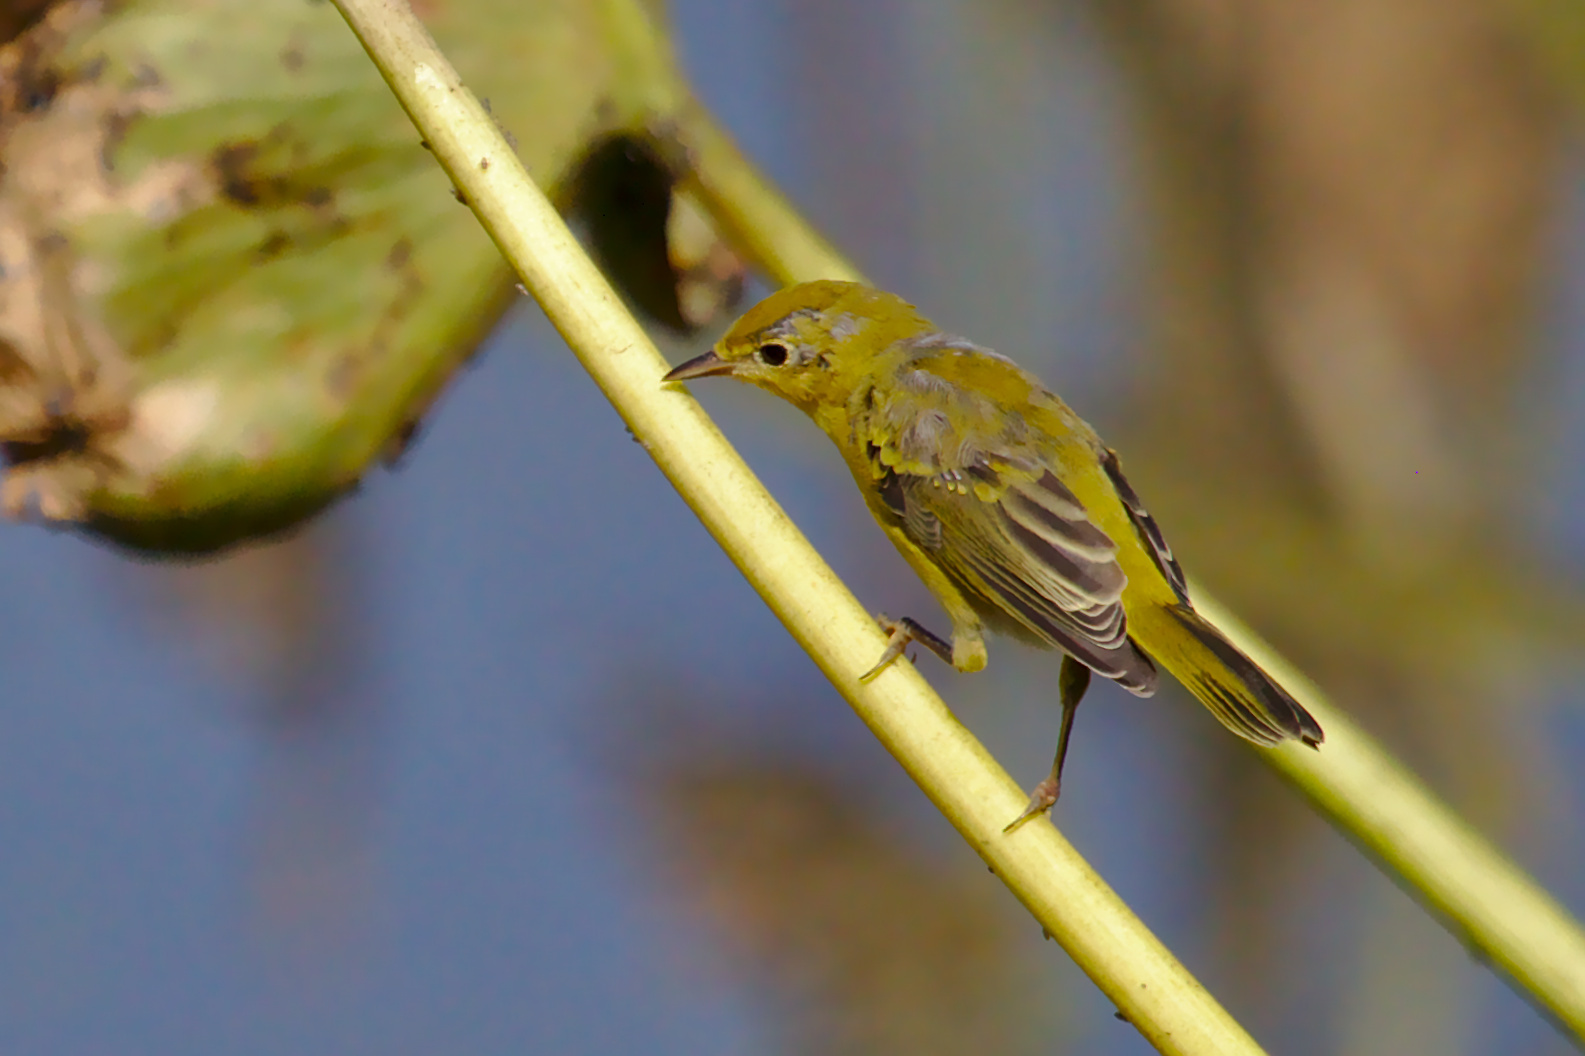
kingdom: Animalia
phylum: Chordata
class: Aves
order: Passeriformes
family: Parulidae
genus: Setophaga
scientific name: Setophaga petechia
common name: Yellow warbler
